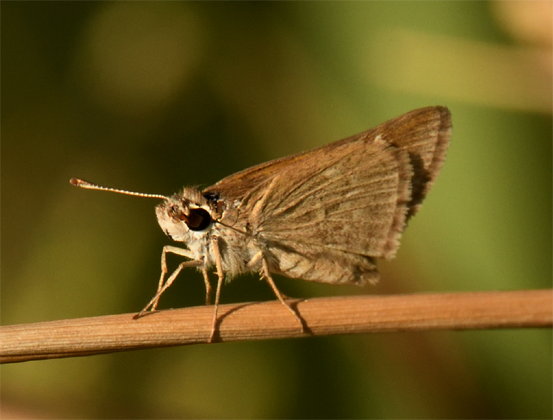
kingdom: Animalia
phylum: Arthropoda
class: Insecta
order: Lepidoptera
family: Hesperiidae
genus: Lerodea
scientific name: Lerodea eufala
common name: Eufala skipper
